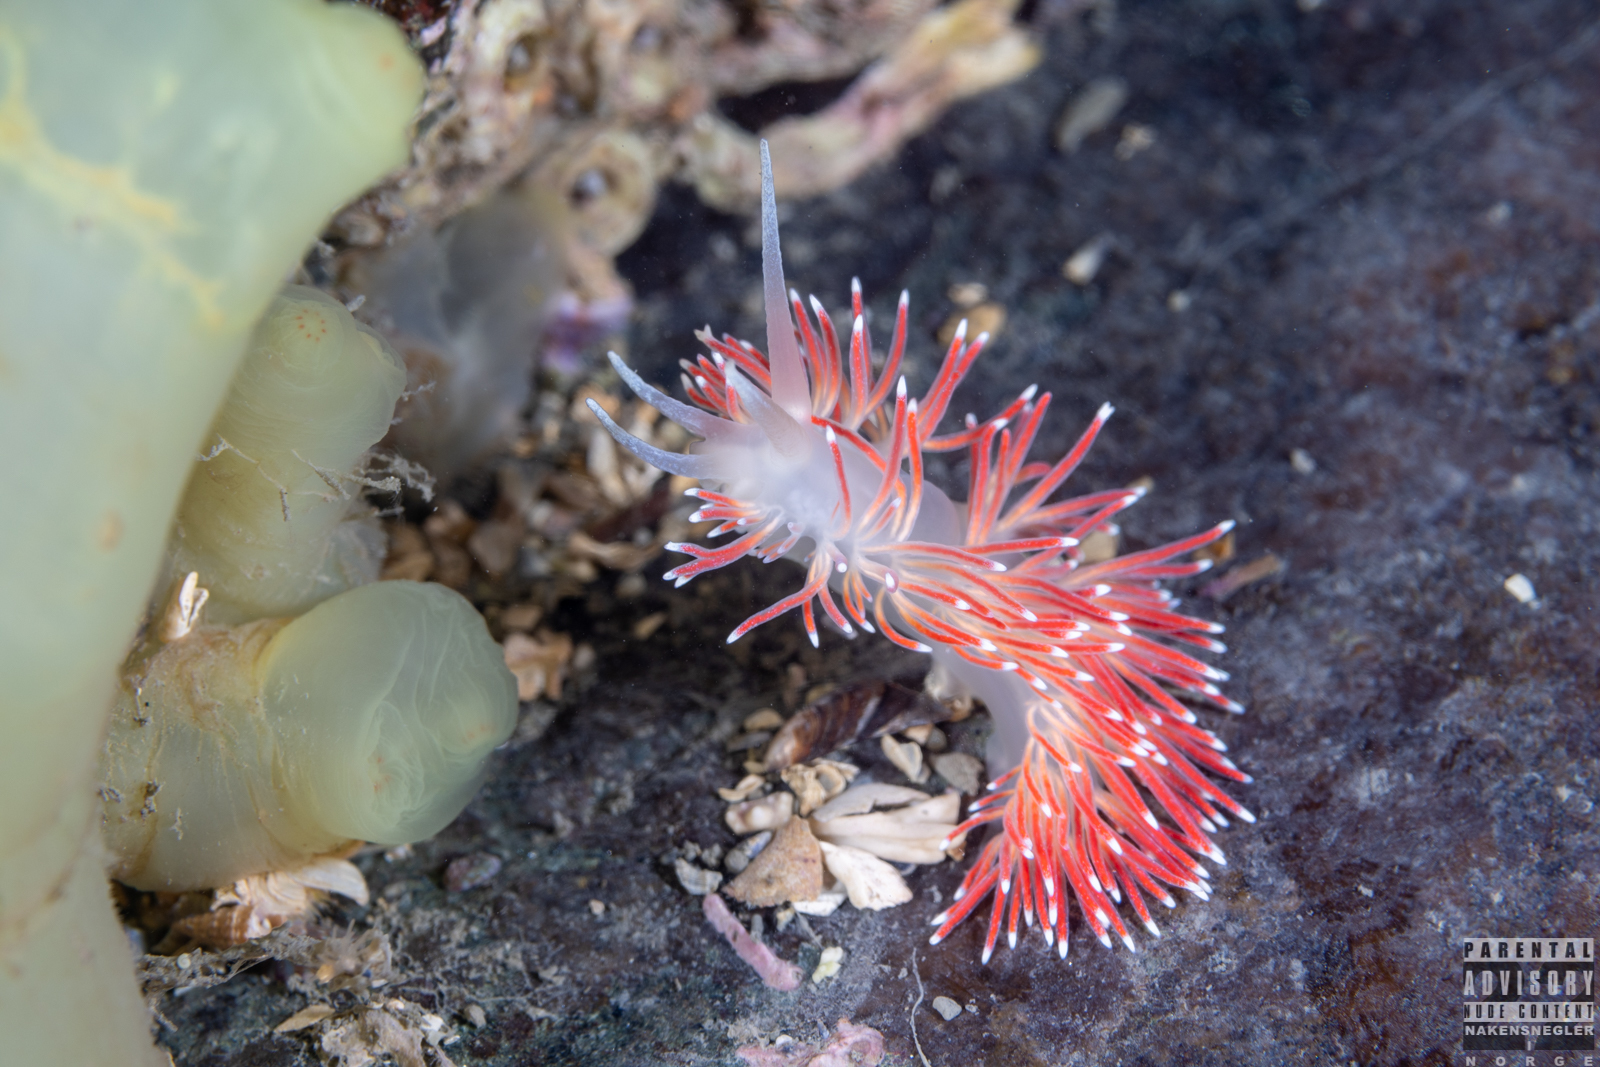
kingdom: Animalia
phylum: Mollusca
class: Gastropoda
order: Nudibranchia
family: Flabellinidae
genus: Carronella
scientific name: Carronella pellucida
